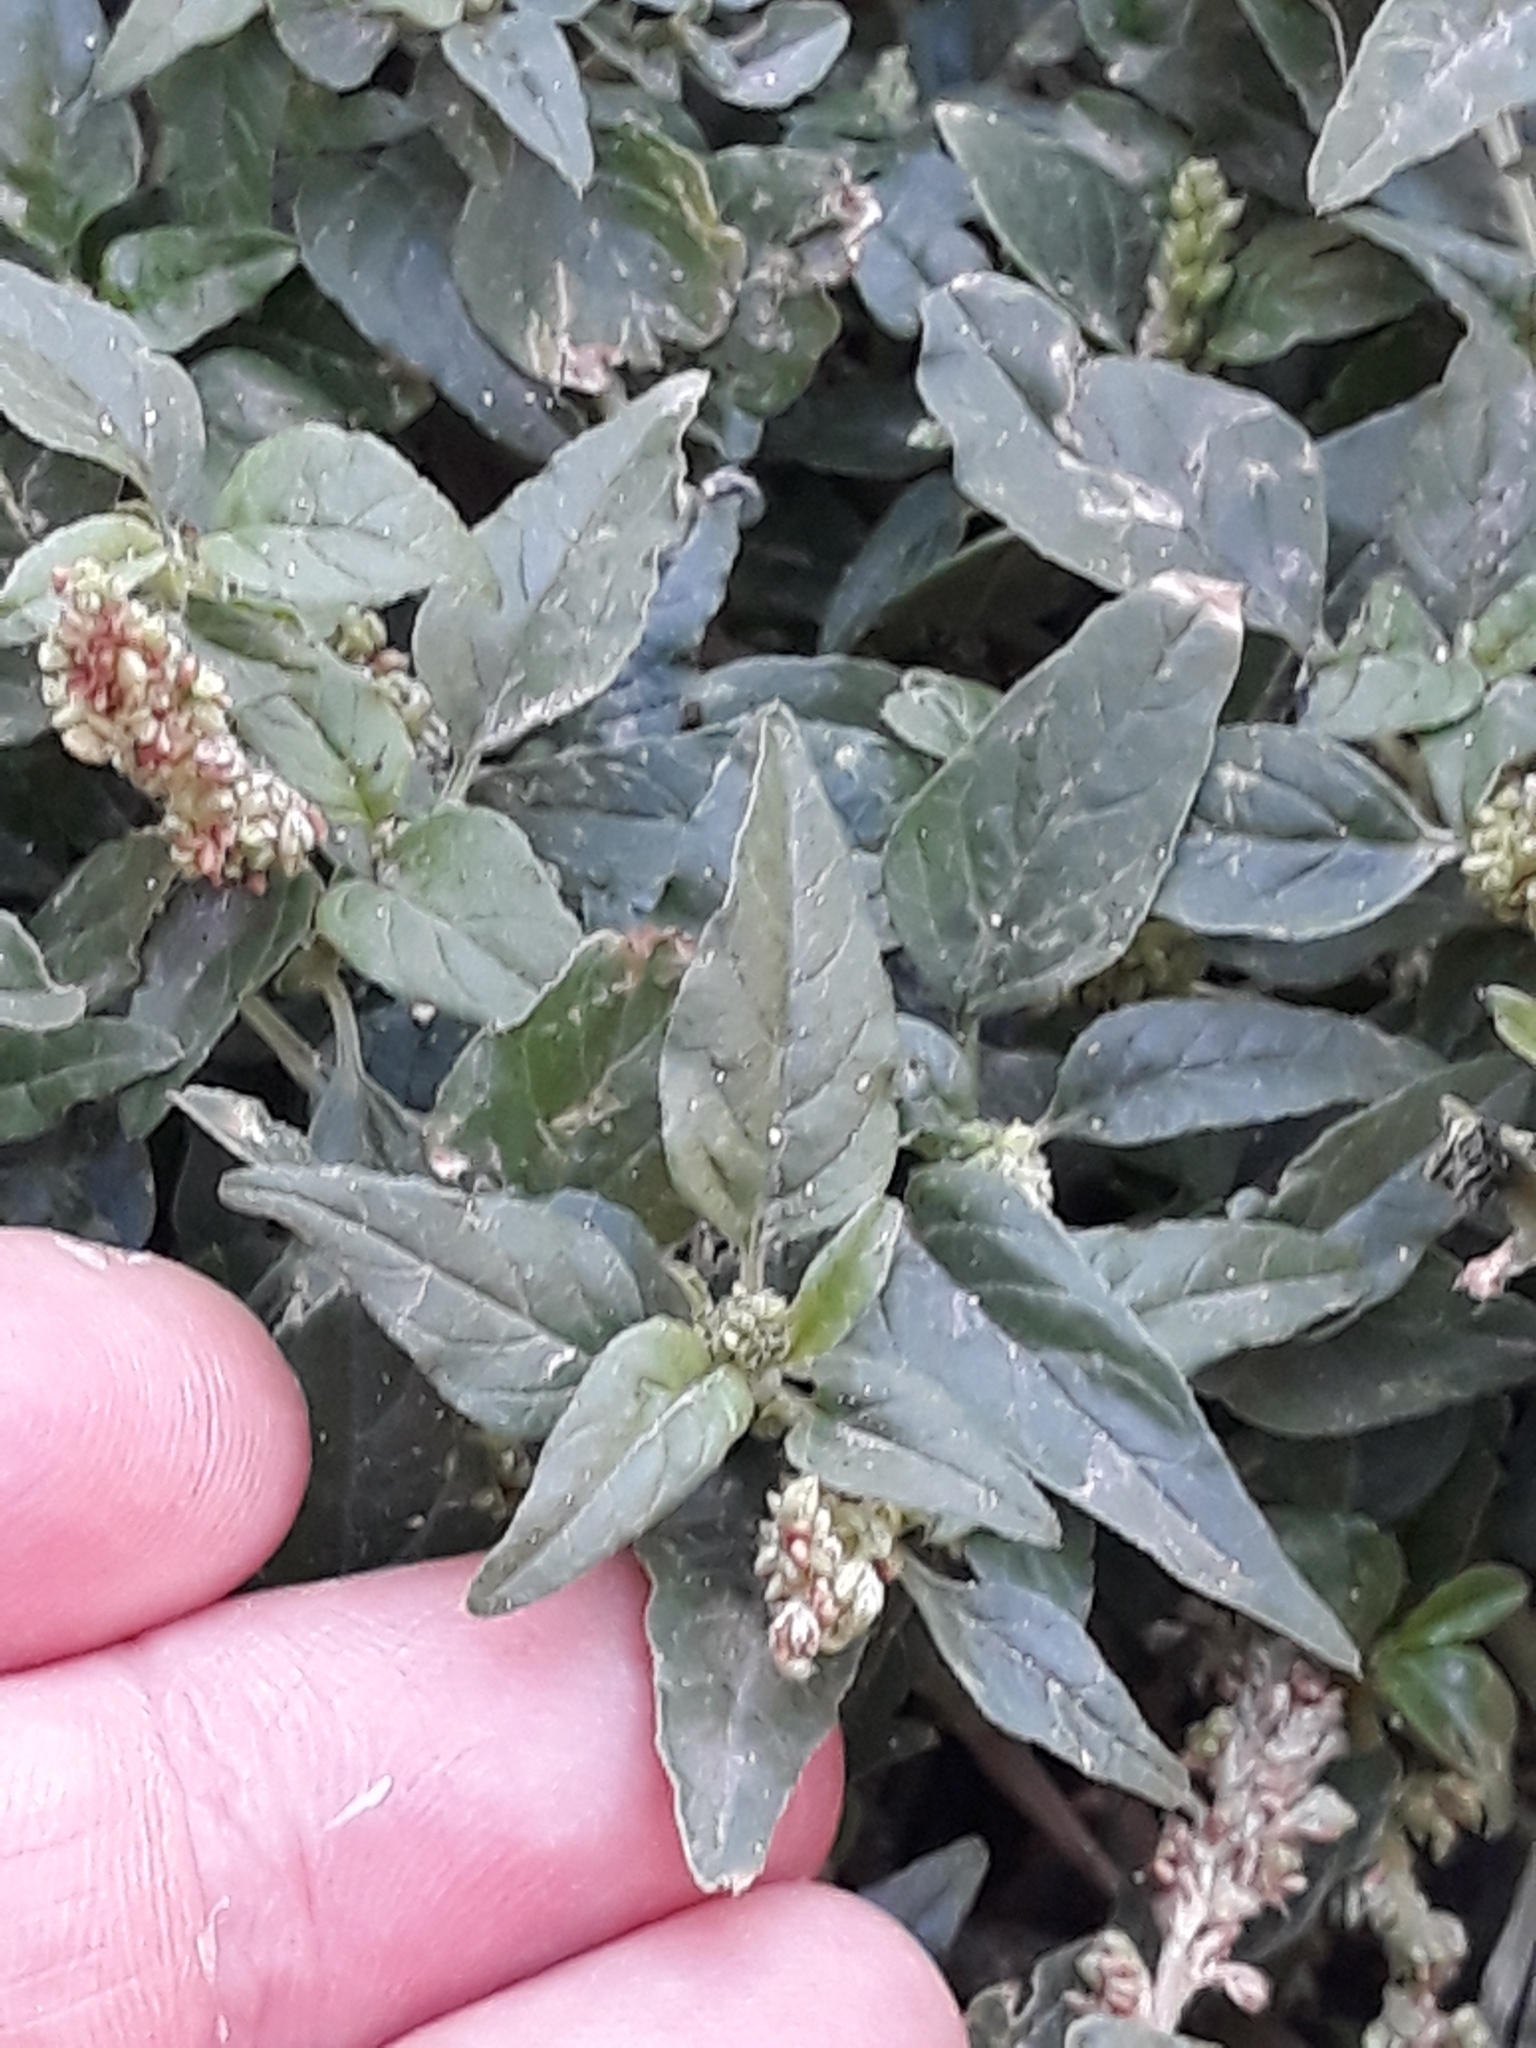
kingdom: Plantae
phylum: Tracheophyta
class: Magnoliopsida
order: Caryophyllales
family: Amaranthaceae
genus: Amaranthus
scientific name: Amaranthus deflexus
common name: Perennial pigweed
